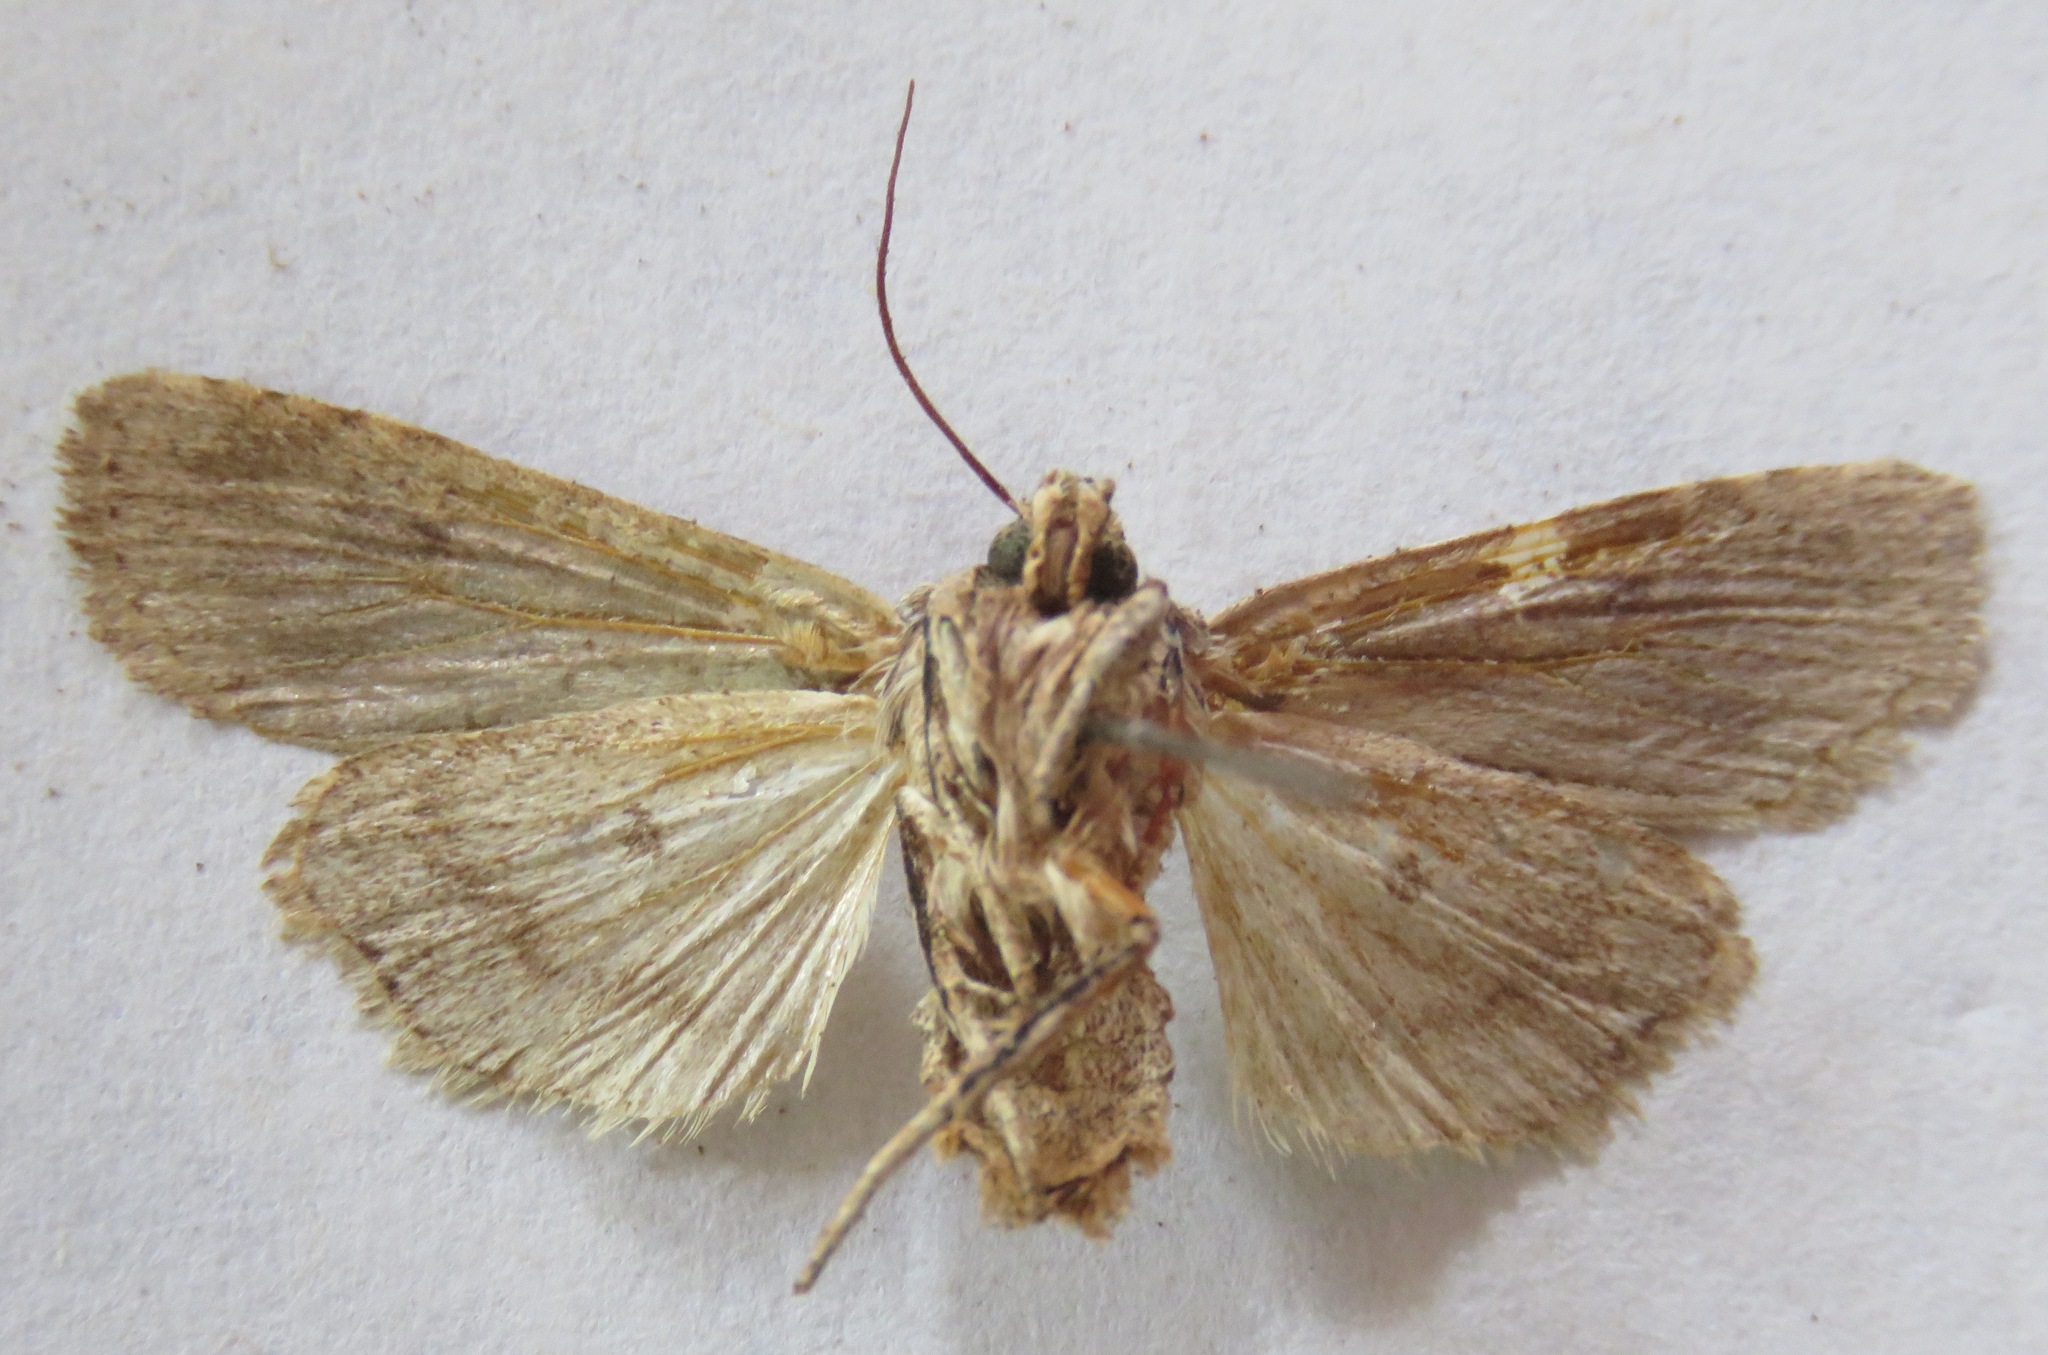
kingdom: Animalia
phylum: Arthropoda
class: Insecta
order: Lepidoptera
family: Noctuidae
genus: Lithophane
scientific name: Lithophane ornitopus
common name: Grey shoulder-knot
